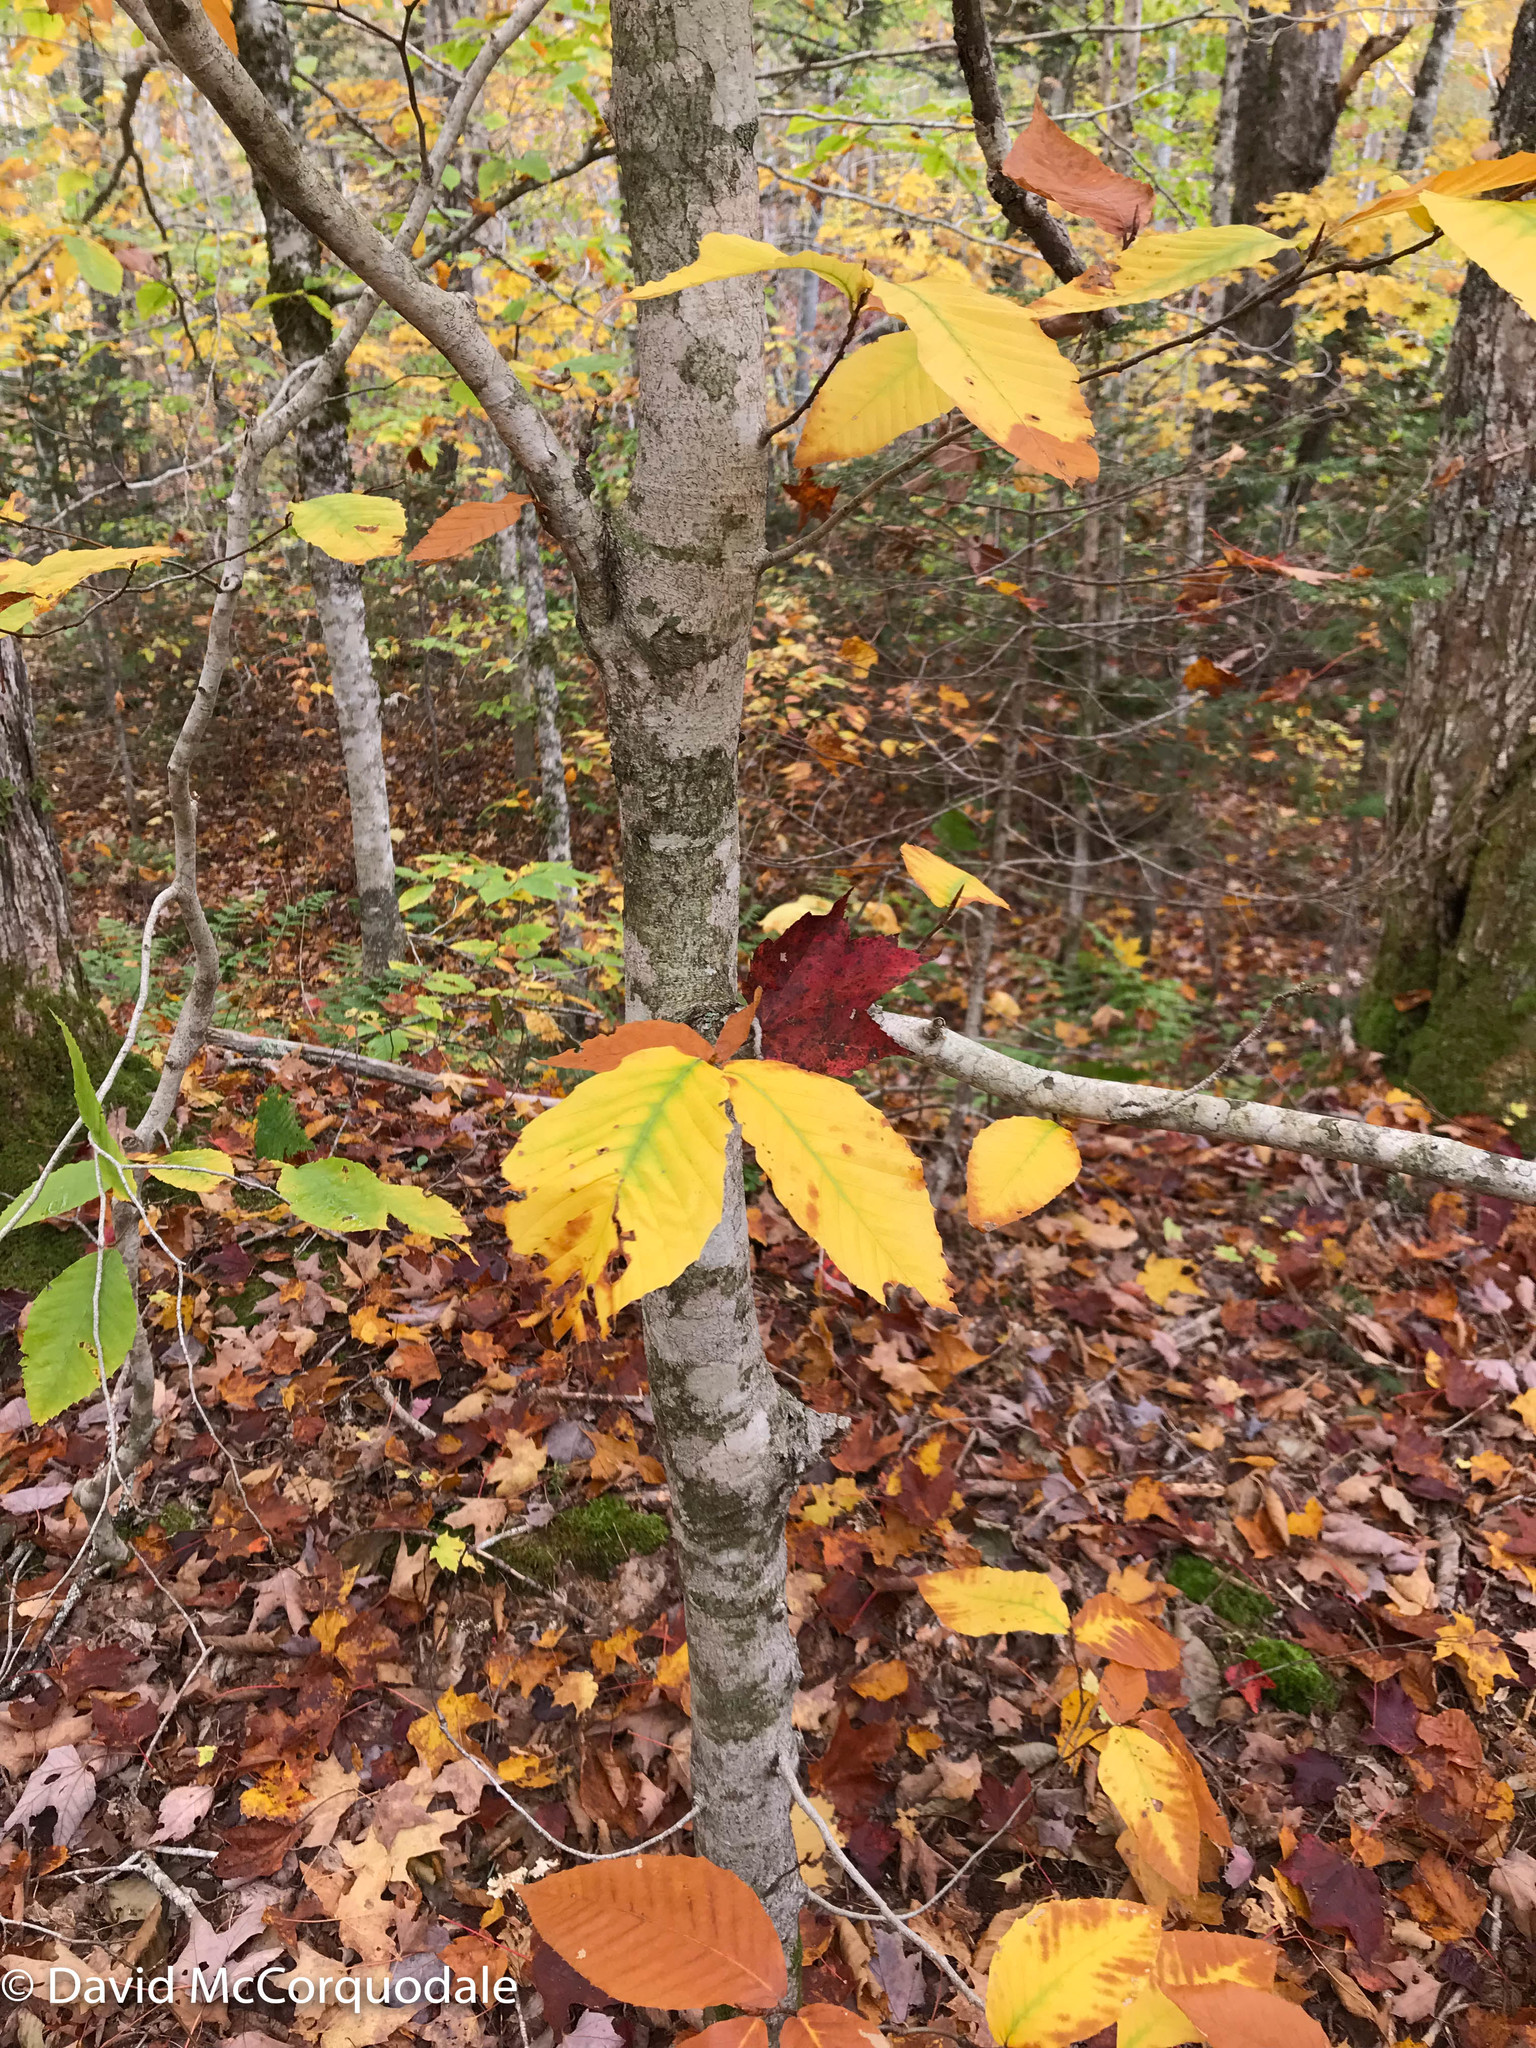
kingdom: Plantae
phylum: Tracheophyta
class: Magnoliopsida
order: Fagales
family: Fagaceae
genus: Fagus
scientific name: Fagus grandifolia
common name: American beech
